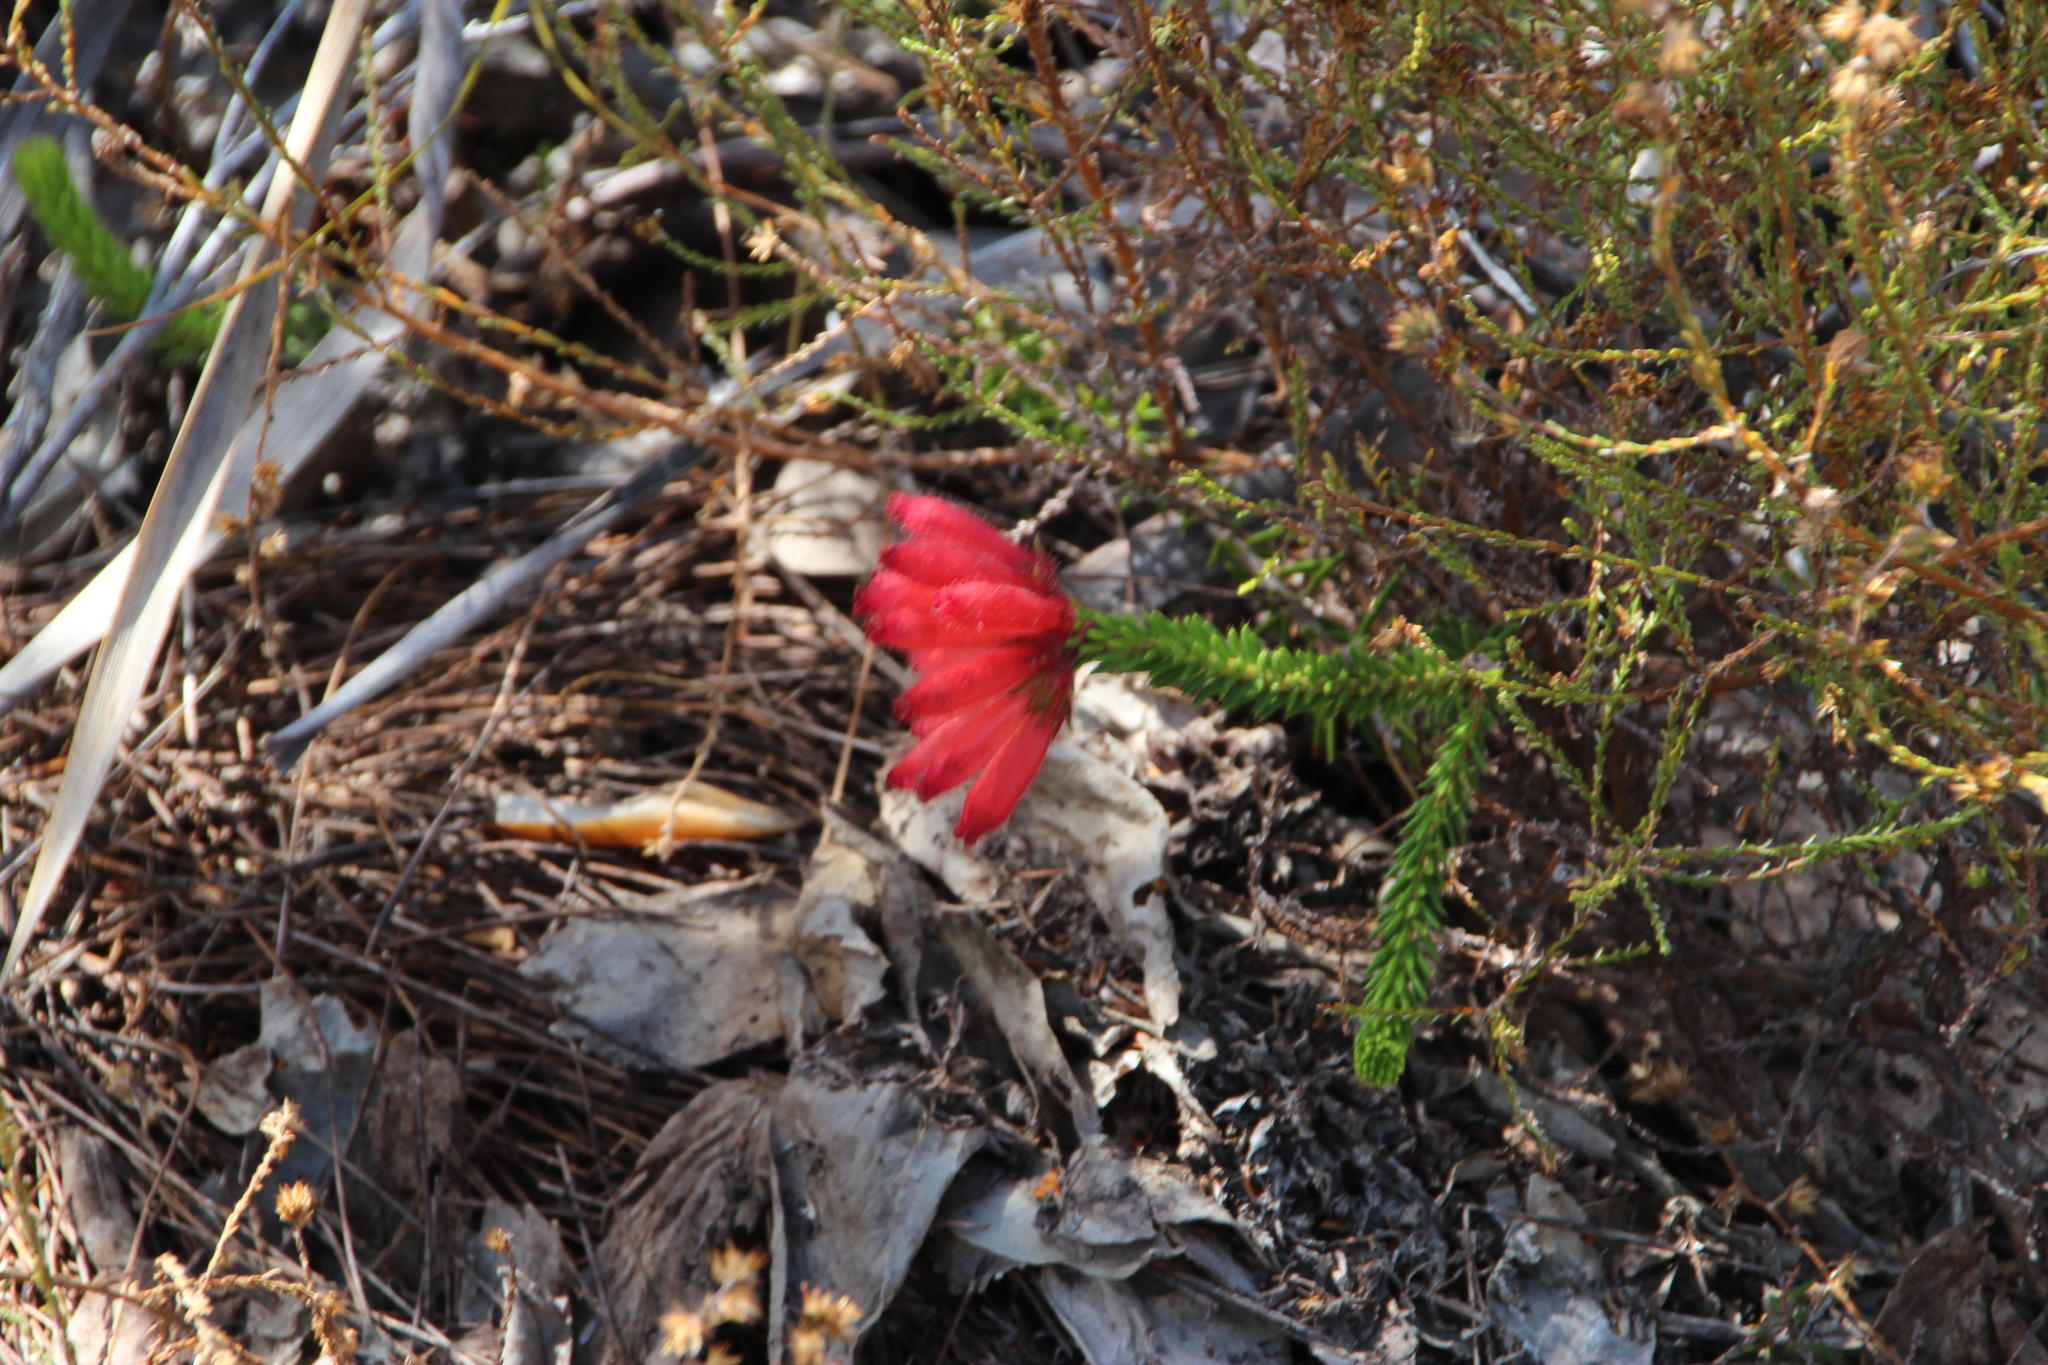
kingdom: Plantae
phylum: Tracheophyta
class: Magnoliopsida
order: Ericales
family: Ericaceae
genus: Erica
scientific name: Erica cerinthoides
